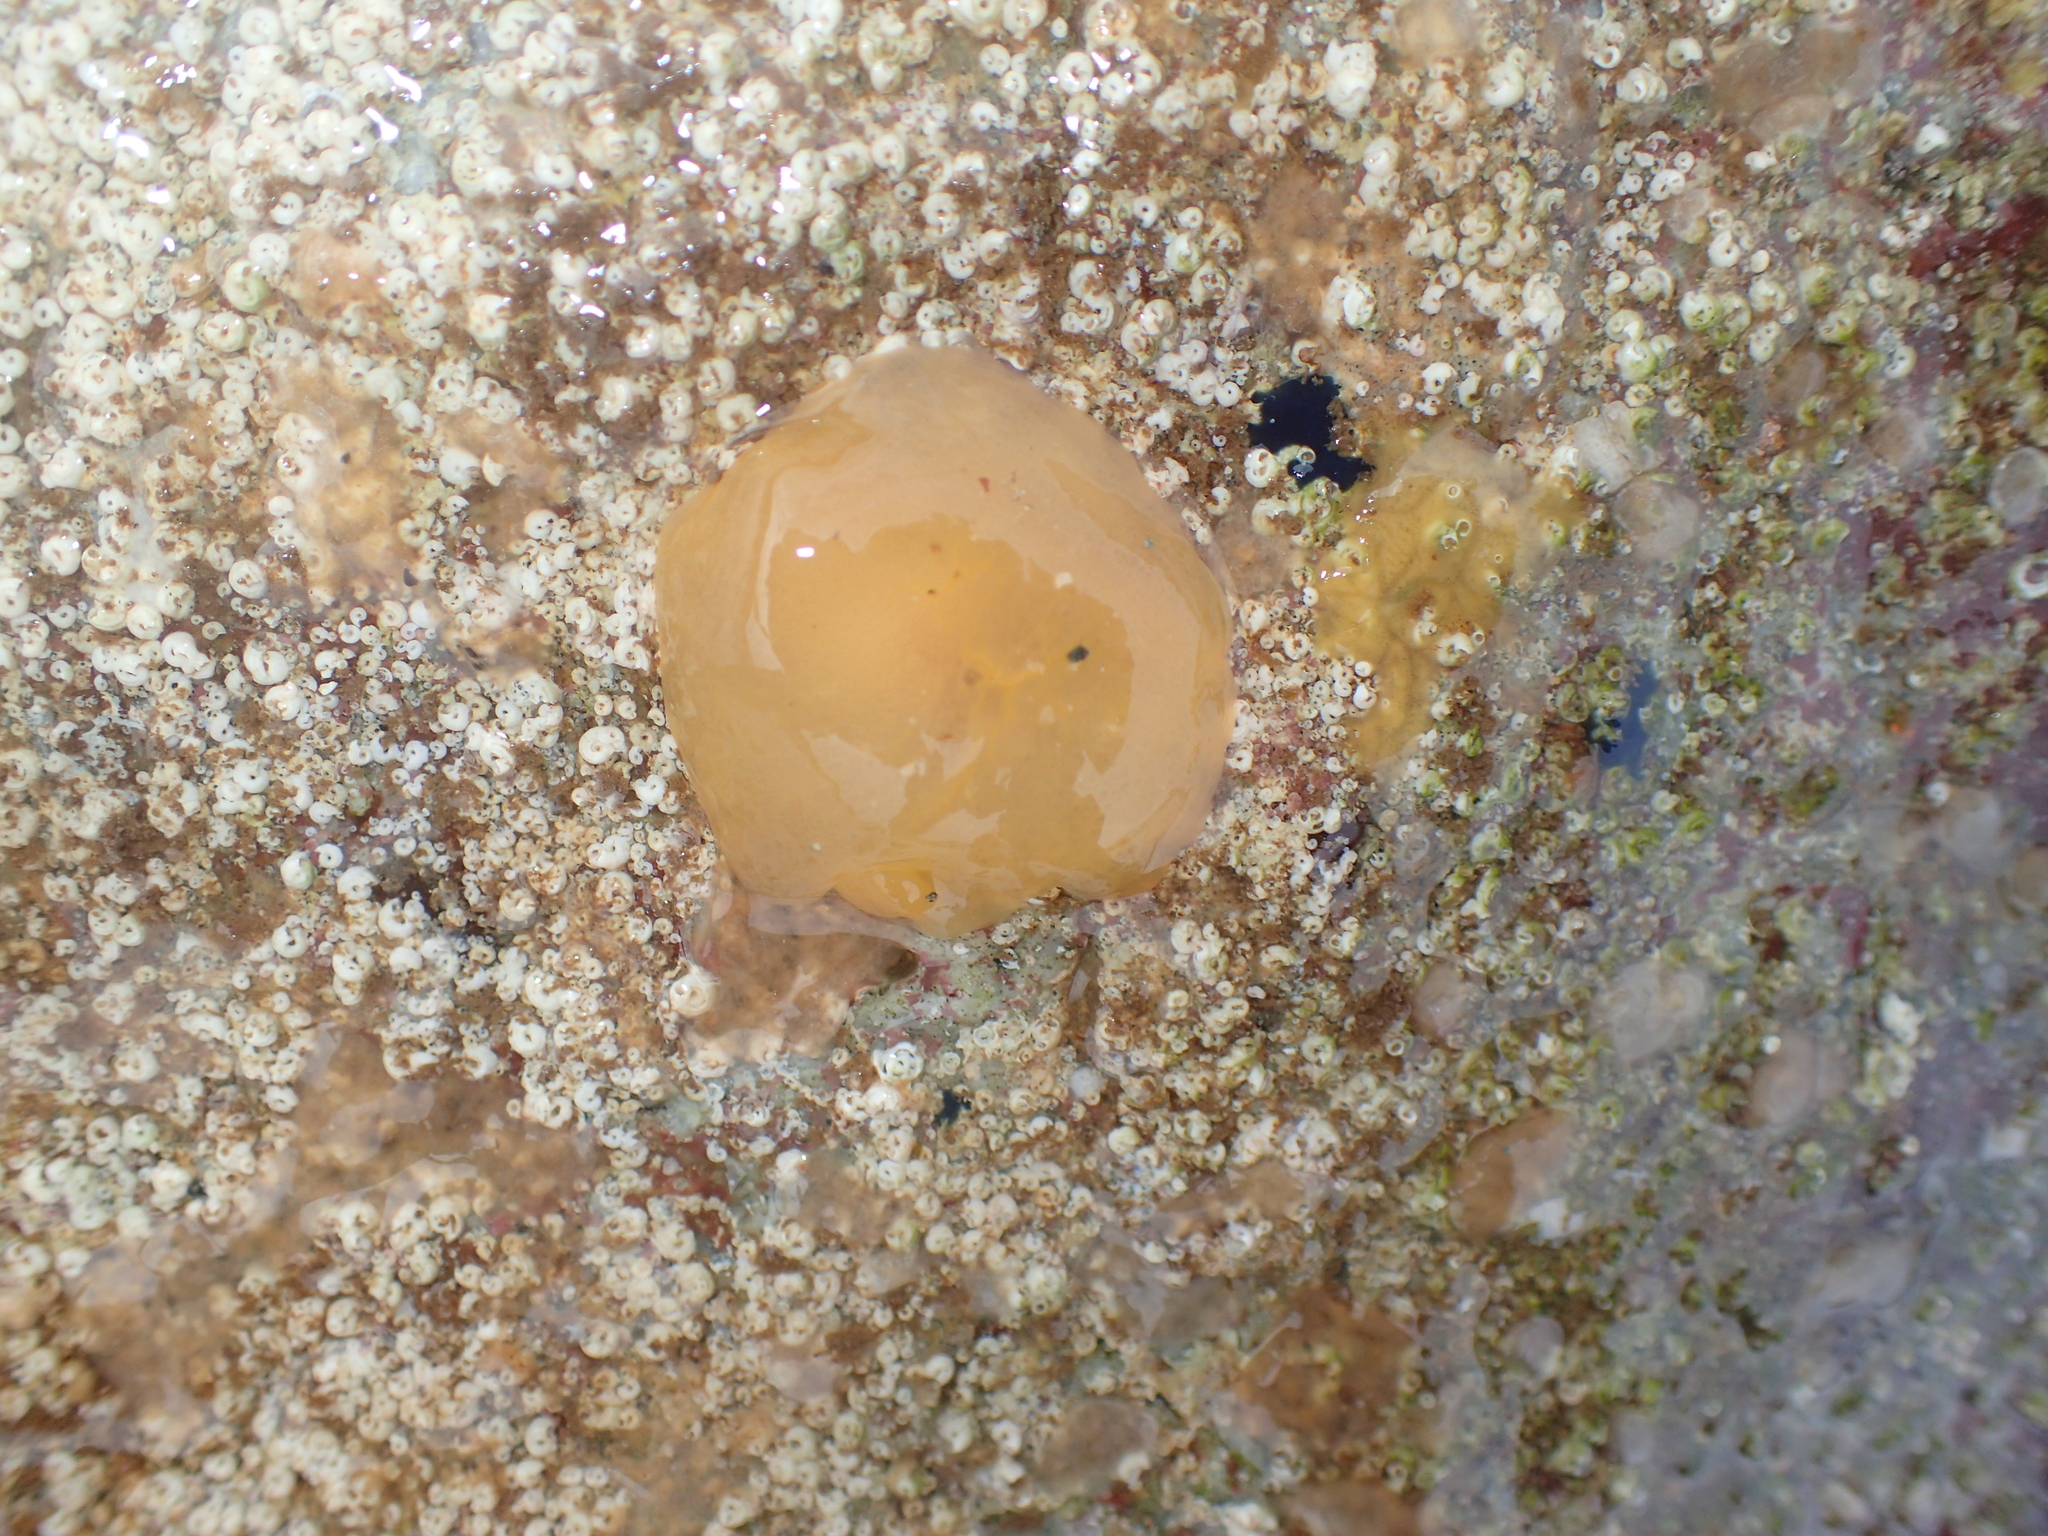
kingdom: Animalia
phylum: Mollusca
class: Gastropoda
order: Pleurobranchida
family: Pleurobranchidae
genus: Berthella
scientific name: Berthella plumula
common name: Yellow-plumed sea slug
